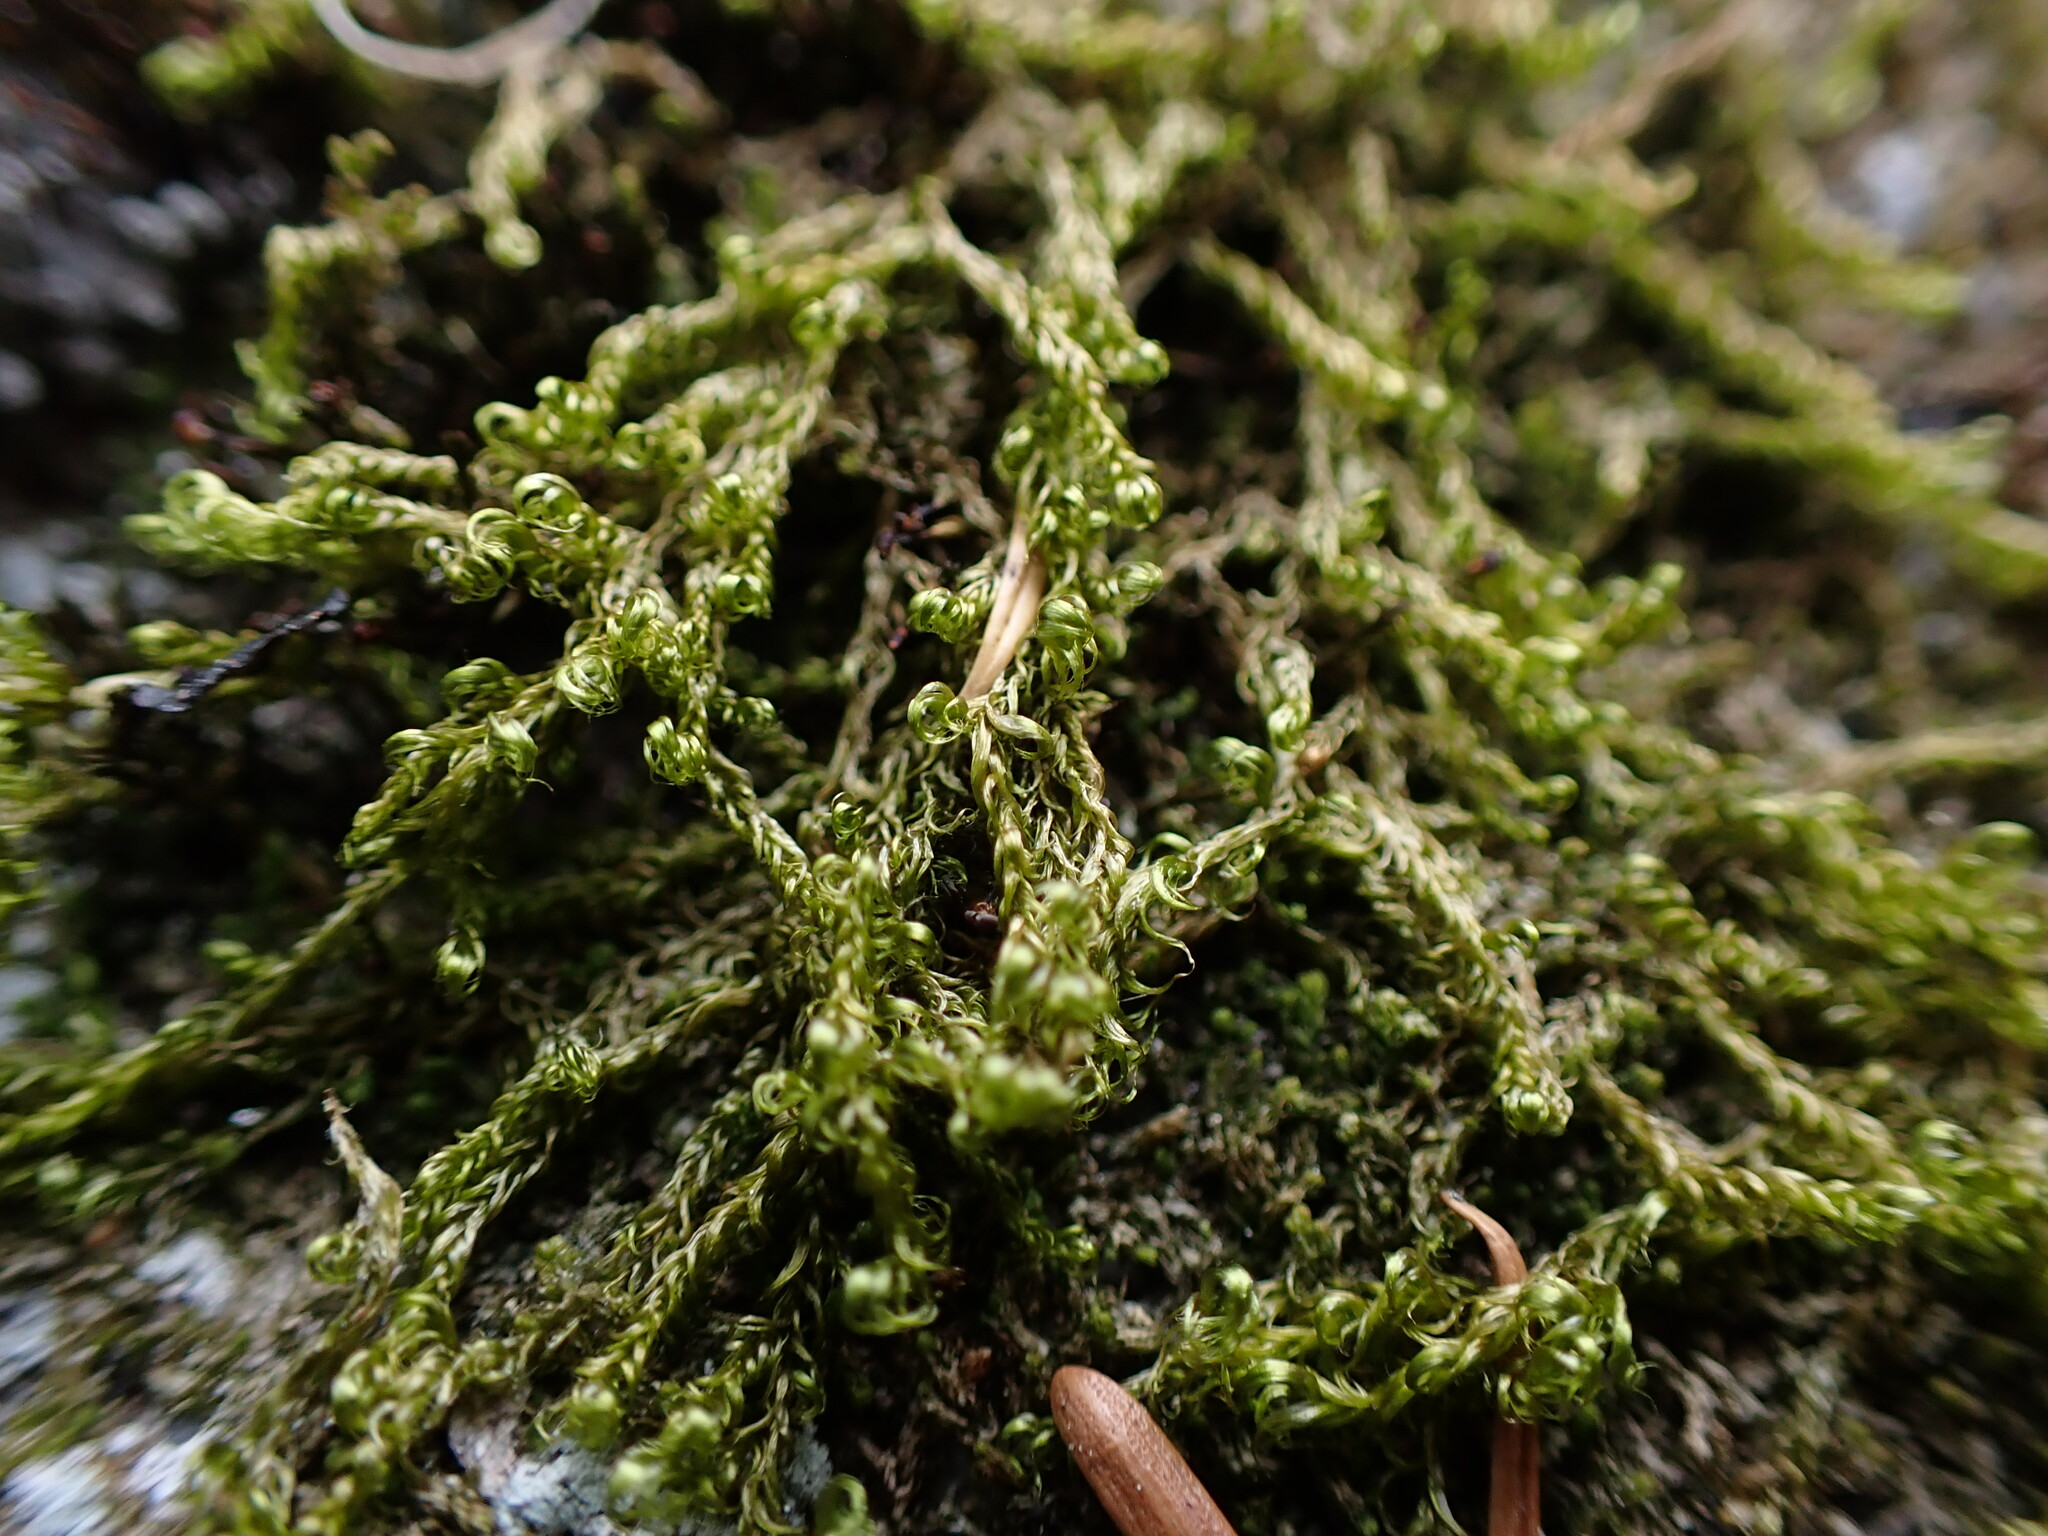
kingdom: Plantae
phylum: Bryophyta
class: Bryopsida
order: Hypnales
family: Scorpidiaceae
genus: Sanionia
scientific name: Sanionia uncinata
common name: Sickle moss
